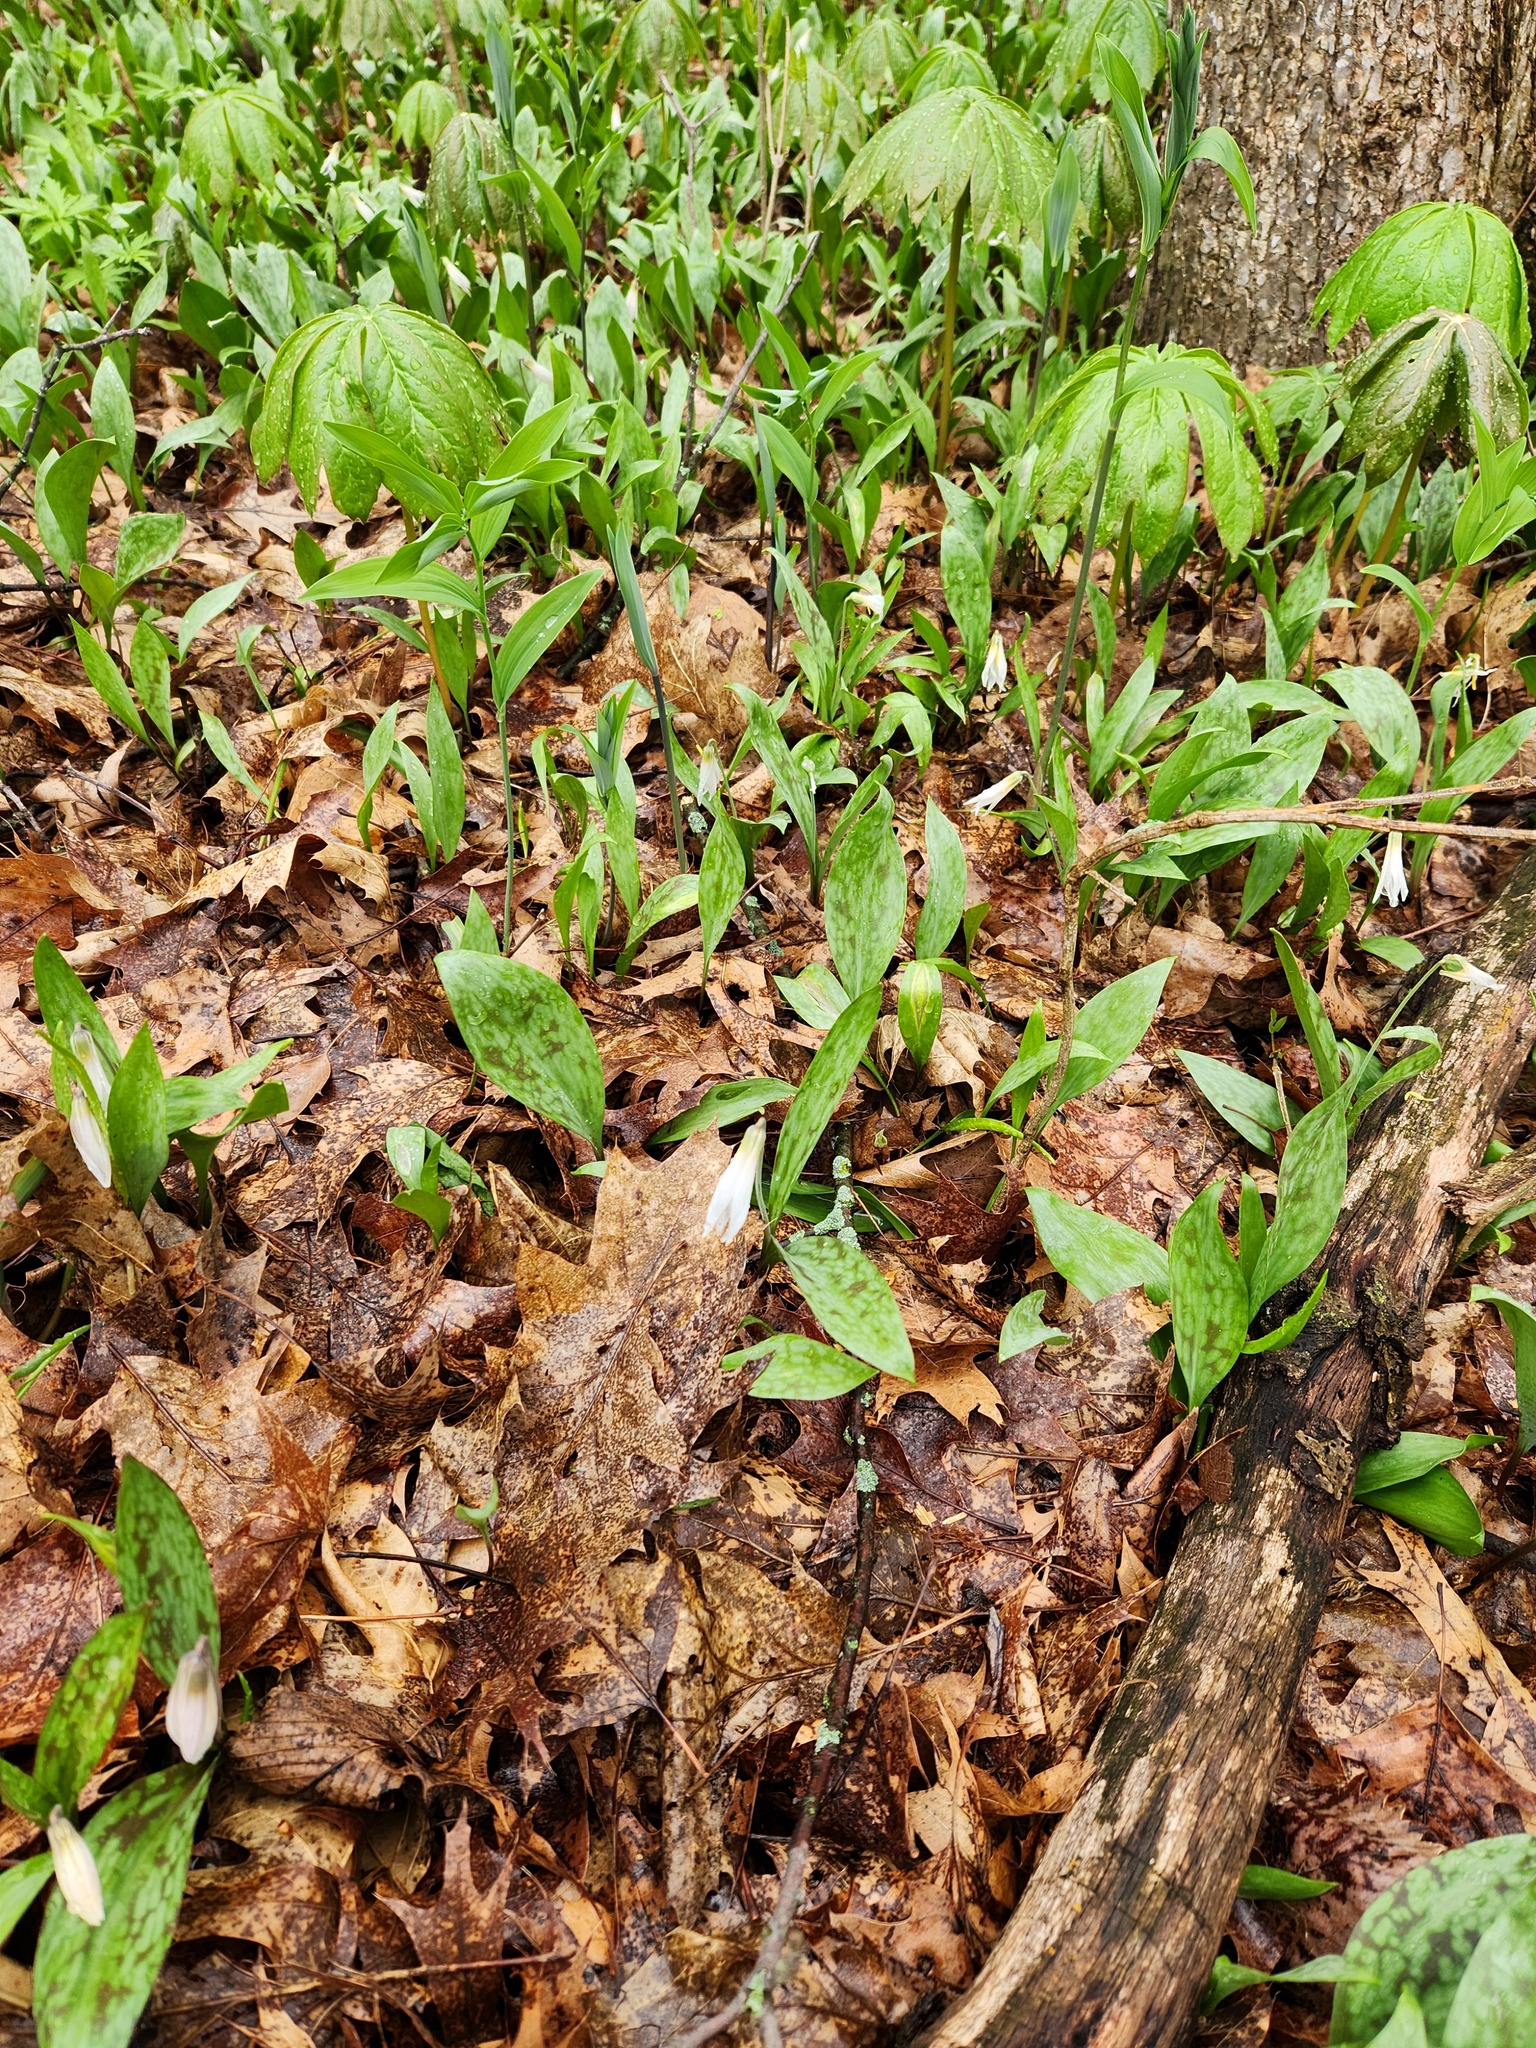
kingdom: Plantae
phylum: Tracheophyta
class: Liliopsida
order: Liliales
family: Liliaceae
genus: Erythronium
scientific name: Erythronium albidum
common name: White trout-lily
